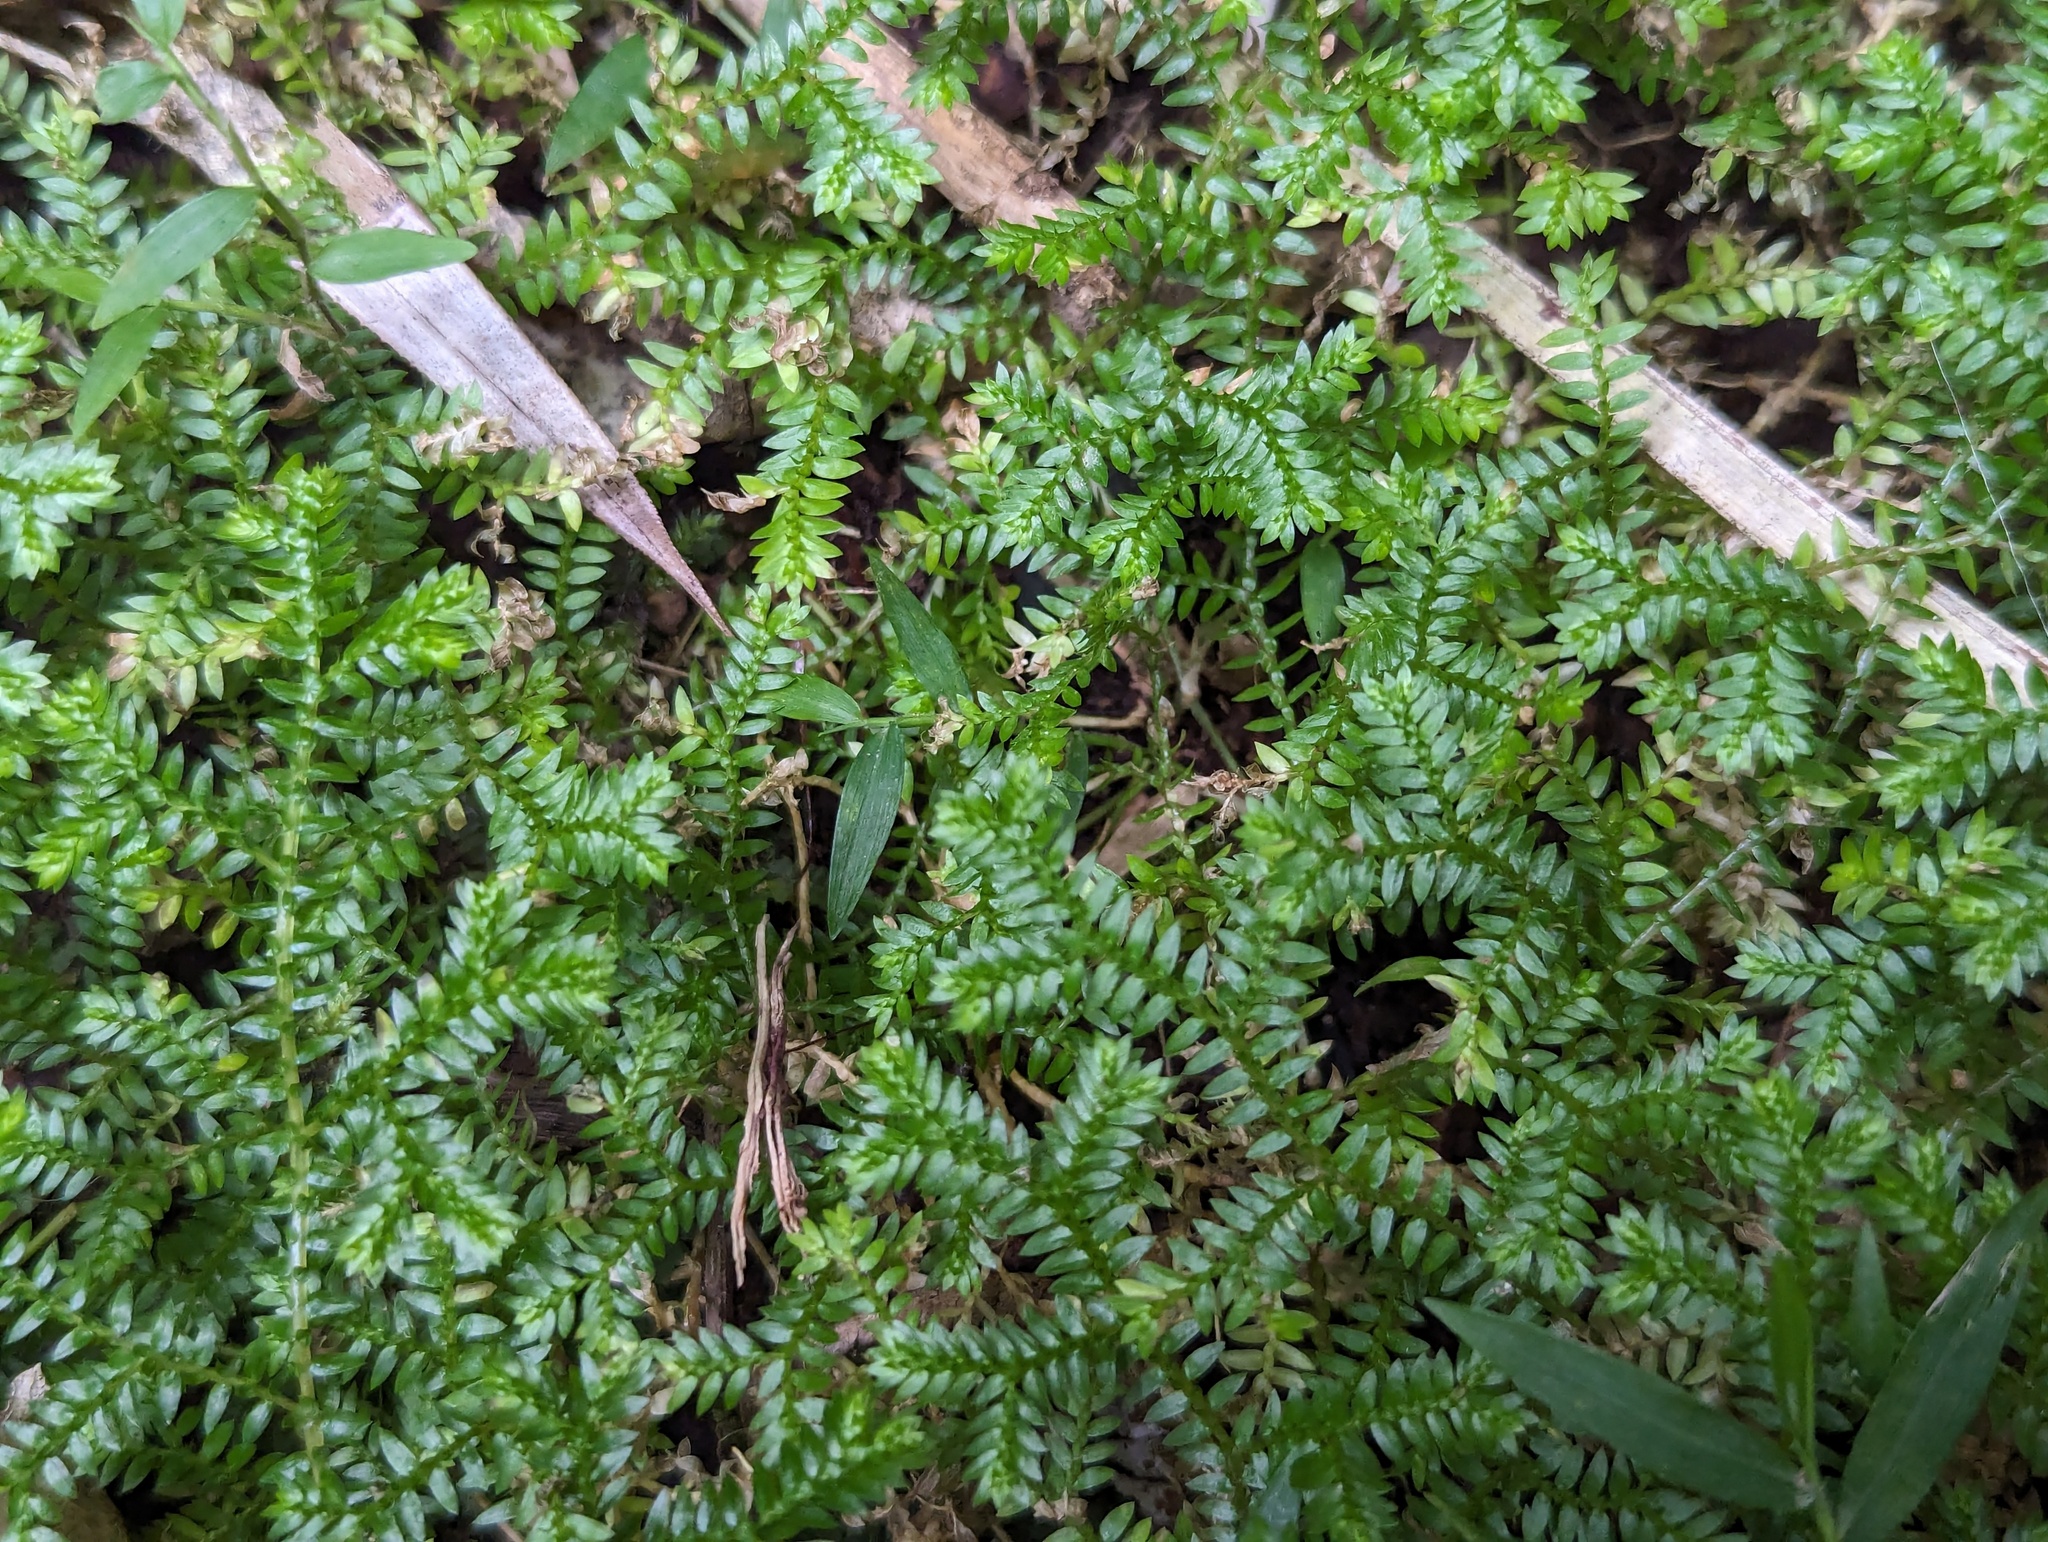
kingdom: Plantae
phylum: Tracheophyta
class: Lycopodiopsida
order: Selaginellales
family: Selaginellaceae
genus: Selaginella
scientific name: Selaginella kraussiana
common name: Krauss' spikemoss
